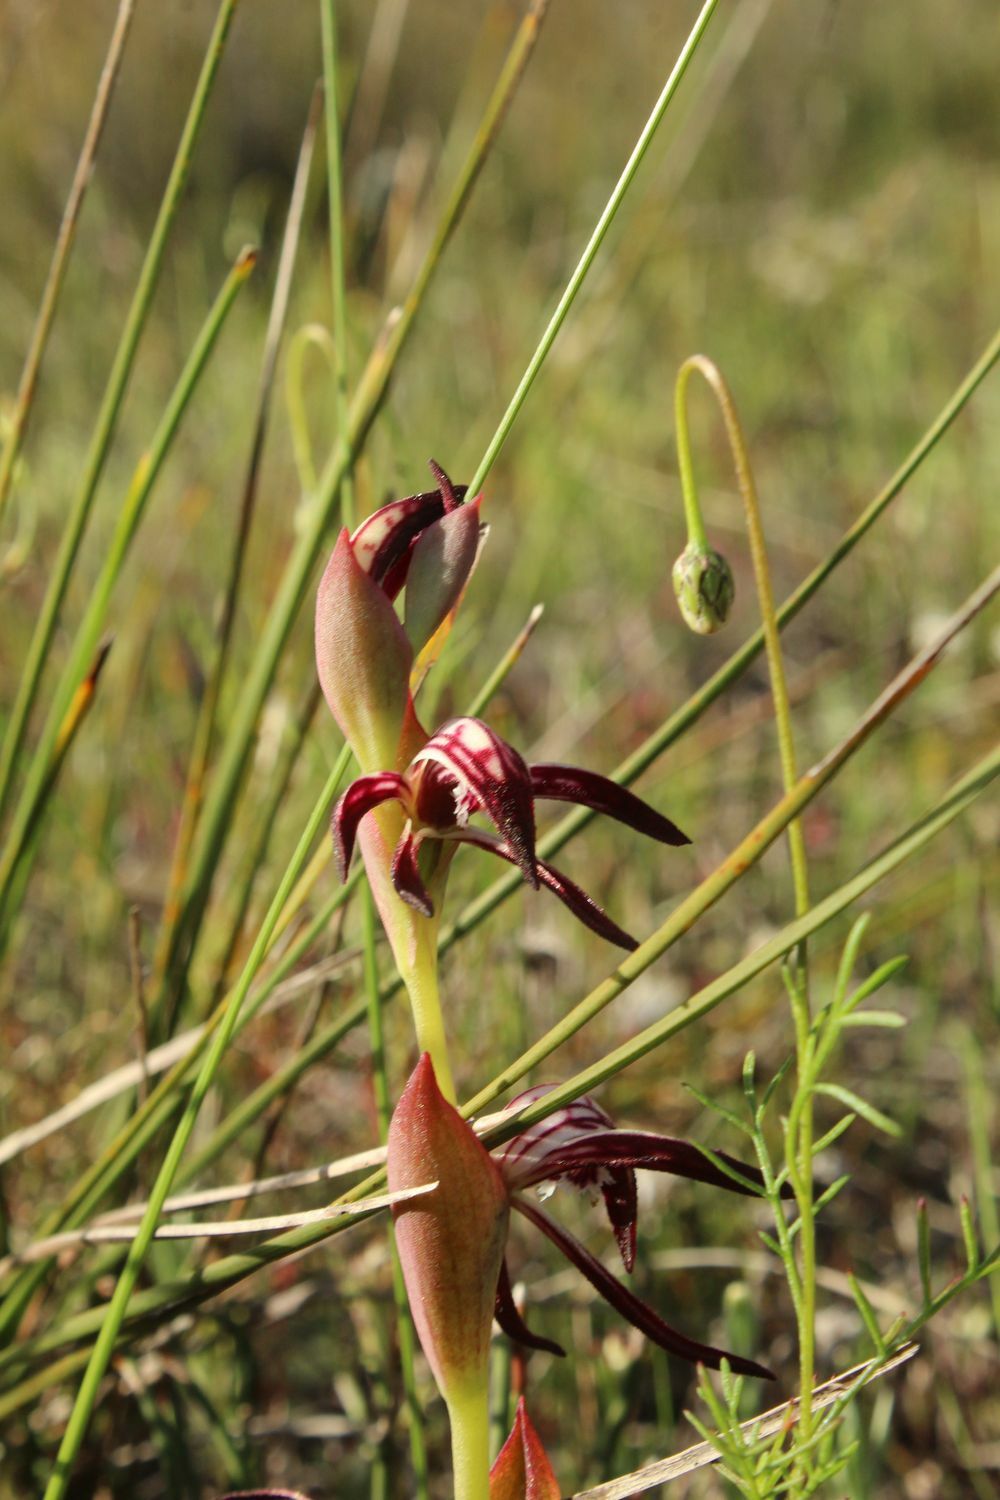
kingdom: Plantae
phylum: Tracheophyta
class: Liliopsida
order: Asparagales
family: Orchidaceae
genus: Pyrorchis
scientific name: Pyrorchis nigricans
